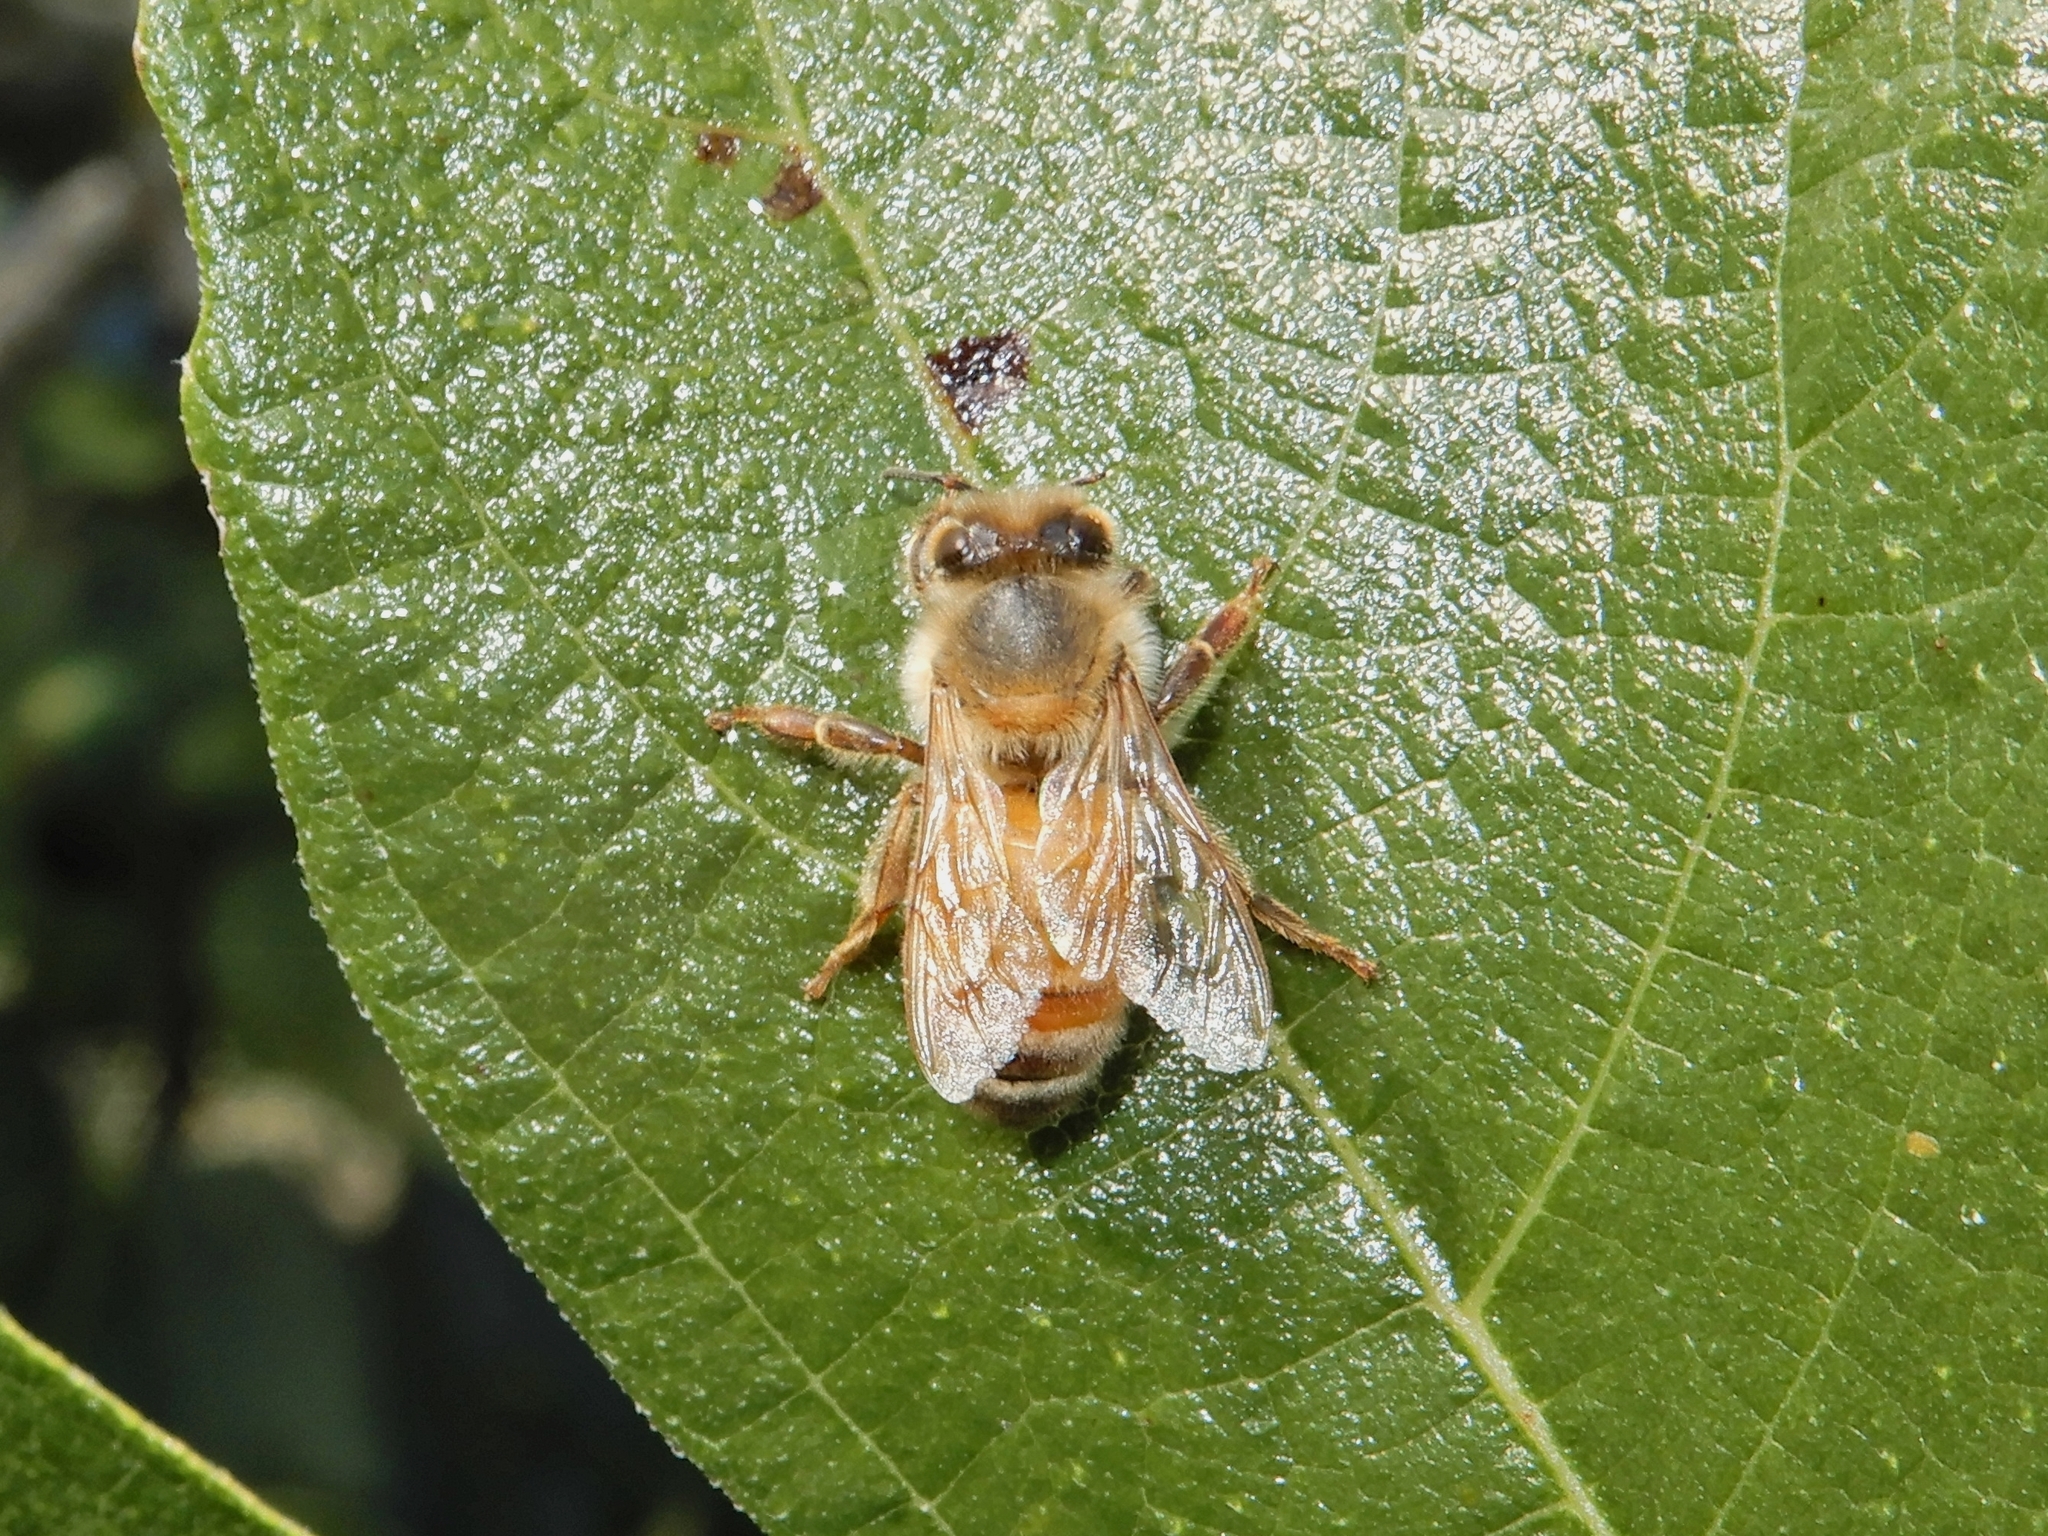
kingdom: Animalia
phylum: Arthropoda
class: Insecta
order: Hymenoptera
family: Apidae
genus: Apis
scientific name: Apis mellifera
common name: Honey bee
